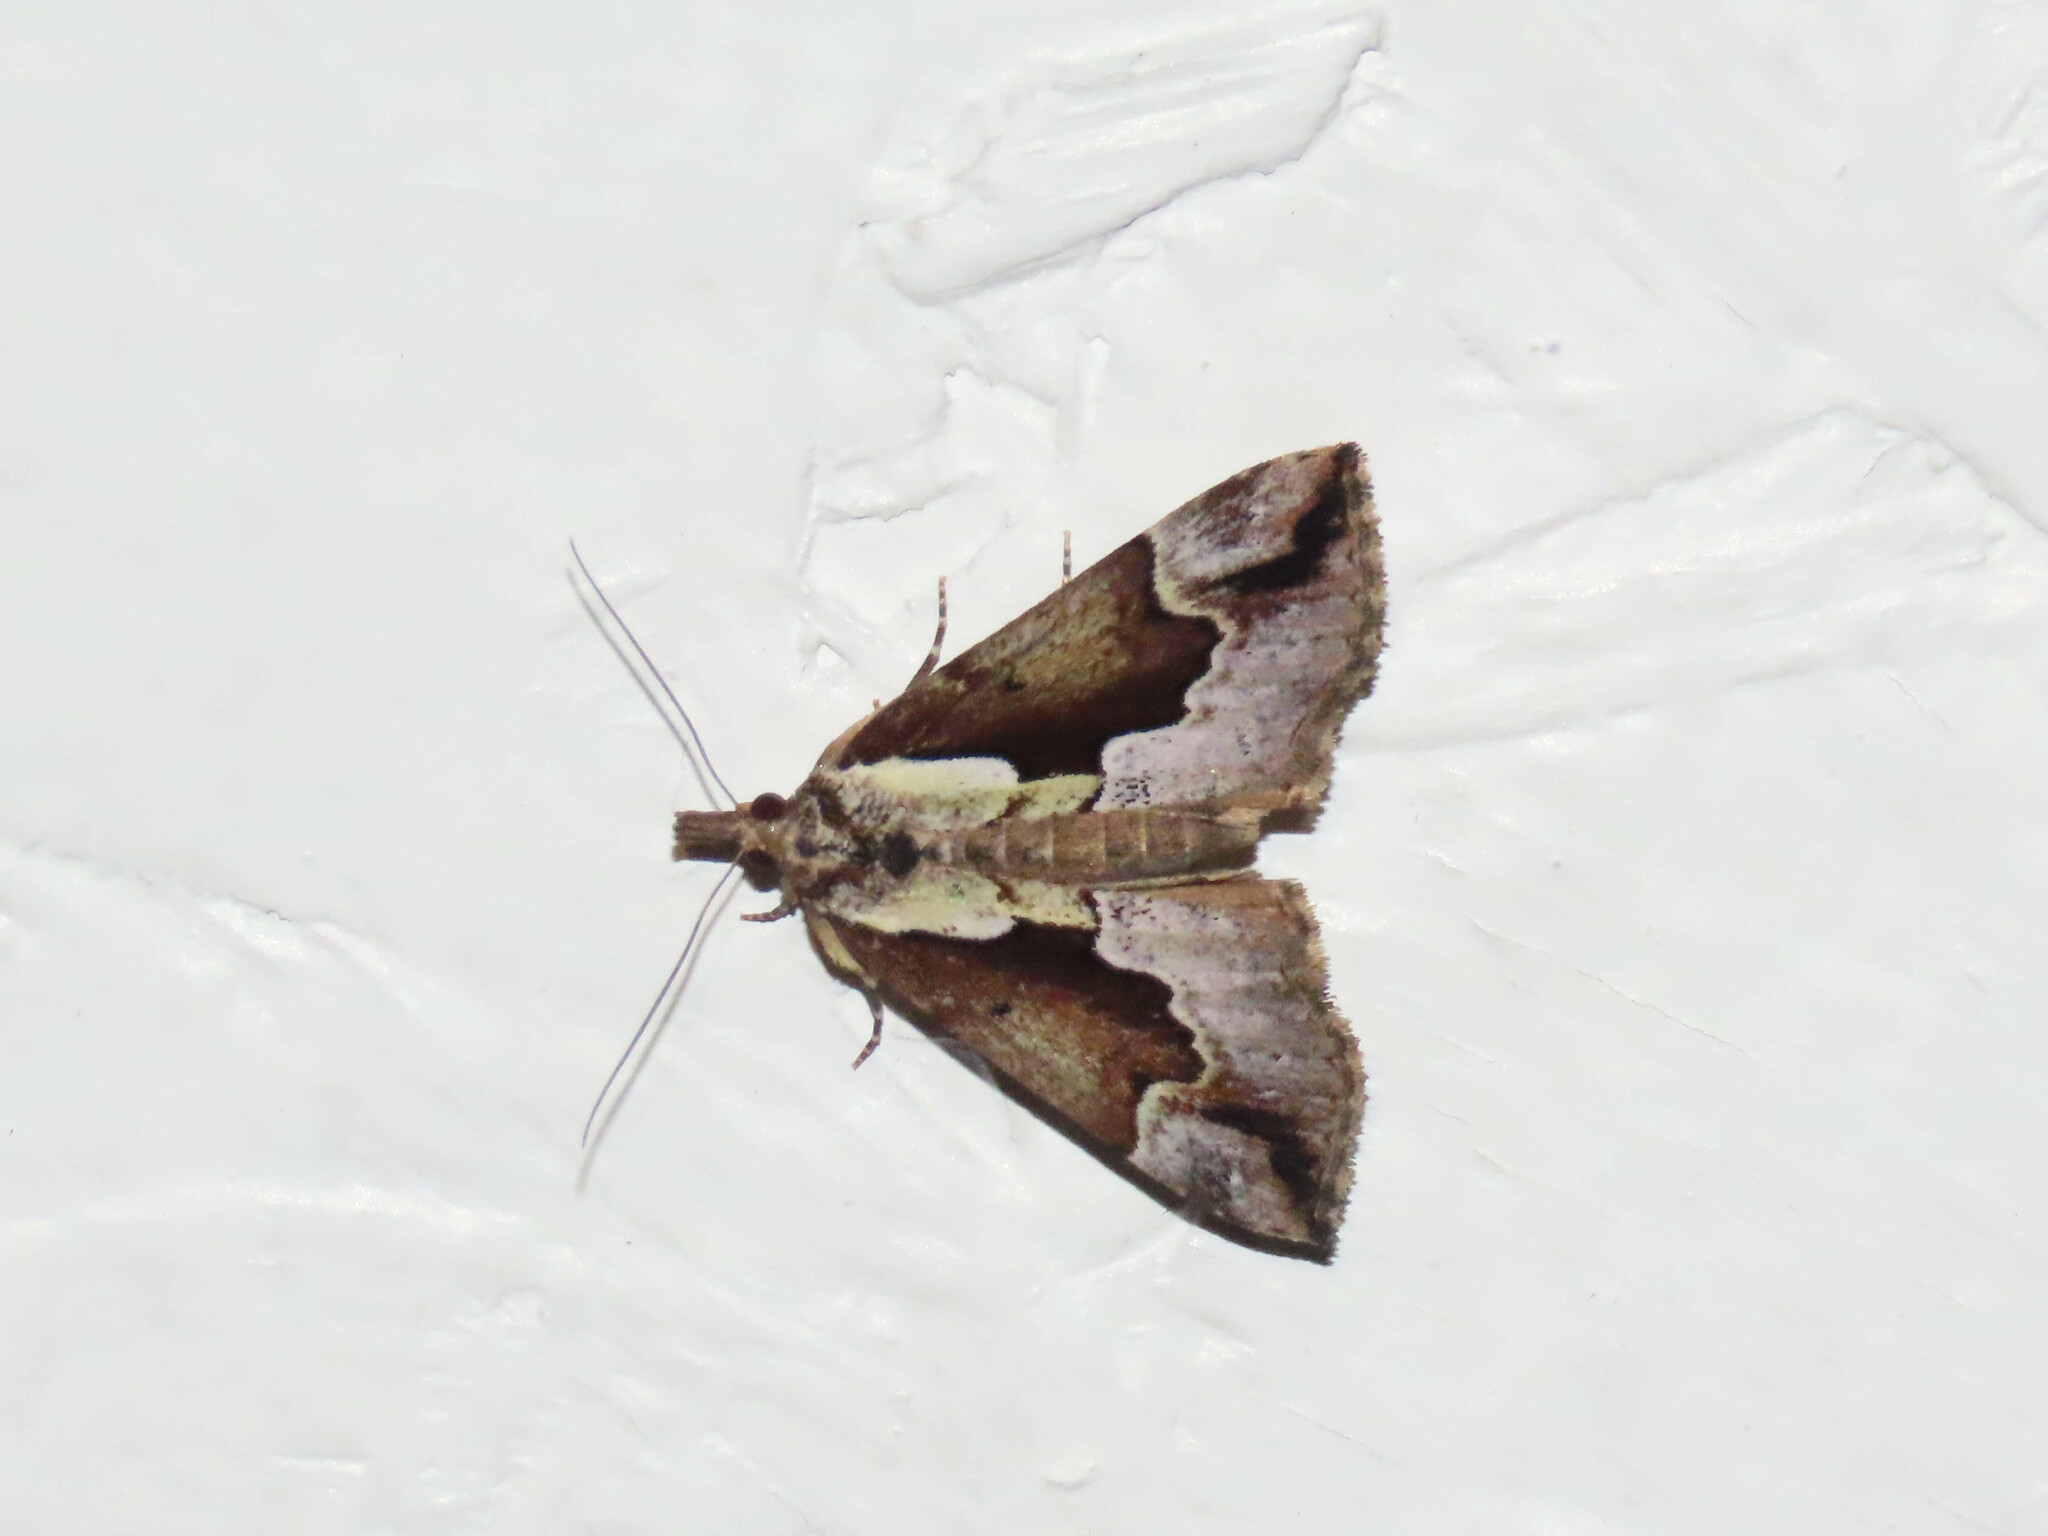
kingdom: Animalia
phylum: Arthropoda
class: Insecta
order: Lepidoptera
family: Erebidae
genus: Hypena
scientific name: Hypena baltimoralis
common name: Baltimore snout
